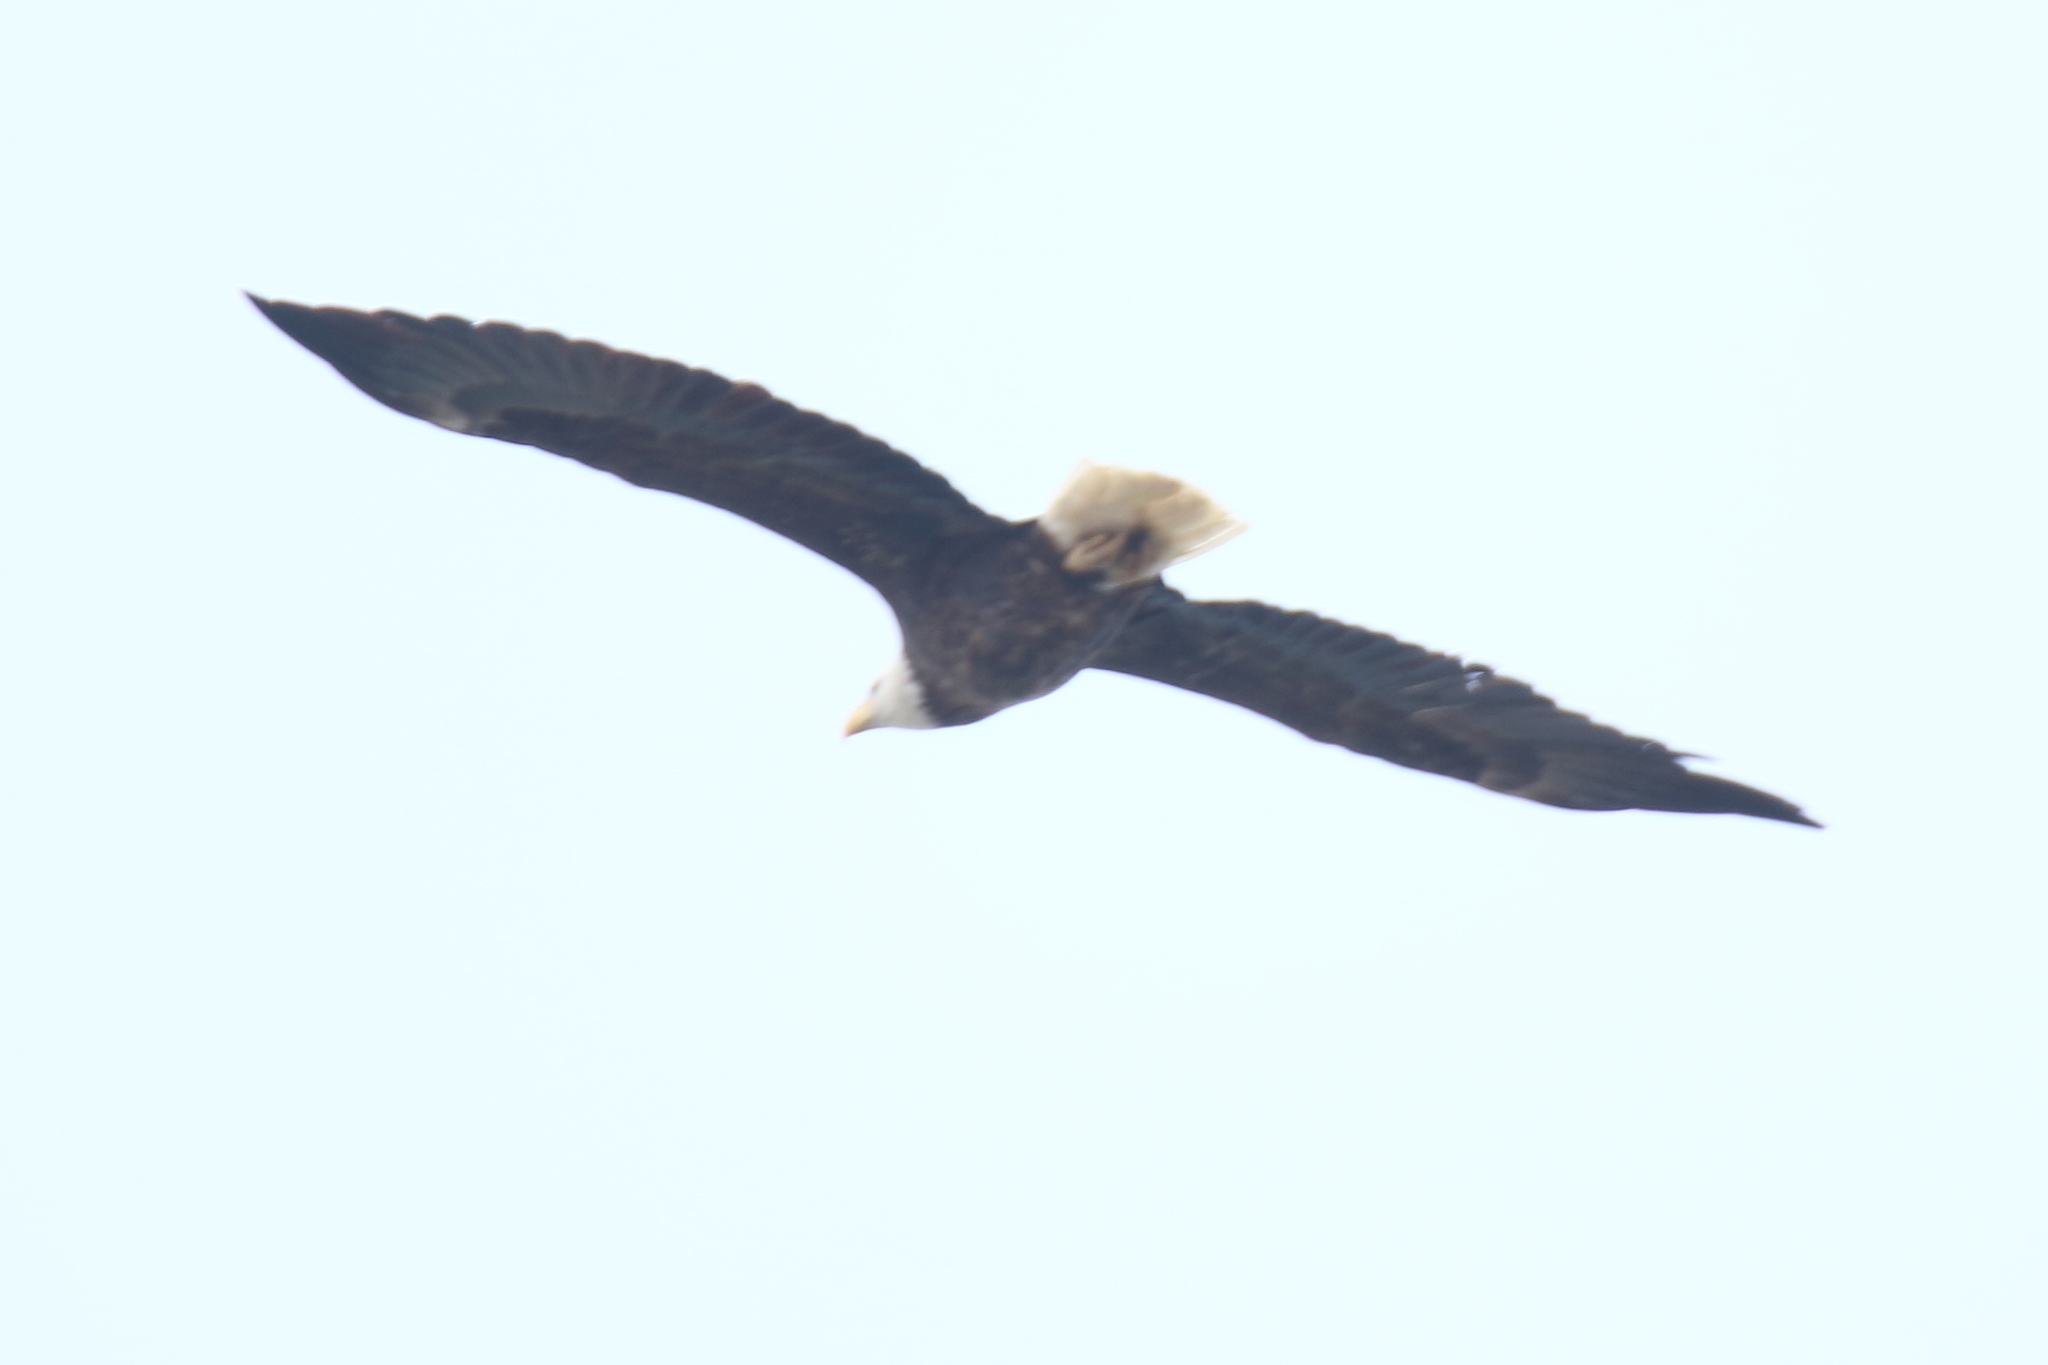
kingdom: Animalia
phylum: Chordata
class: Aves
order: Accipitriformes
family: Accipitridae
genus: Haliaeetus
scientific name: Haliaeetus leucocephalus
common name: Bald eagle
